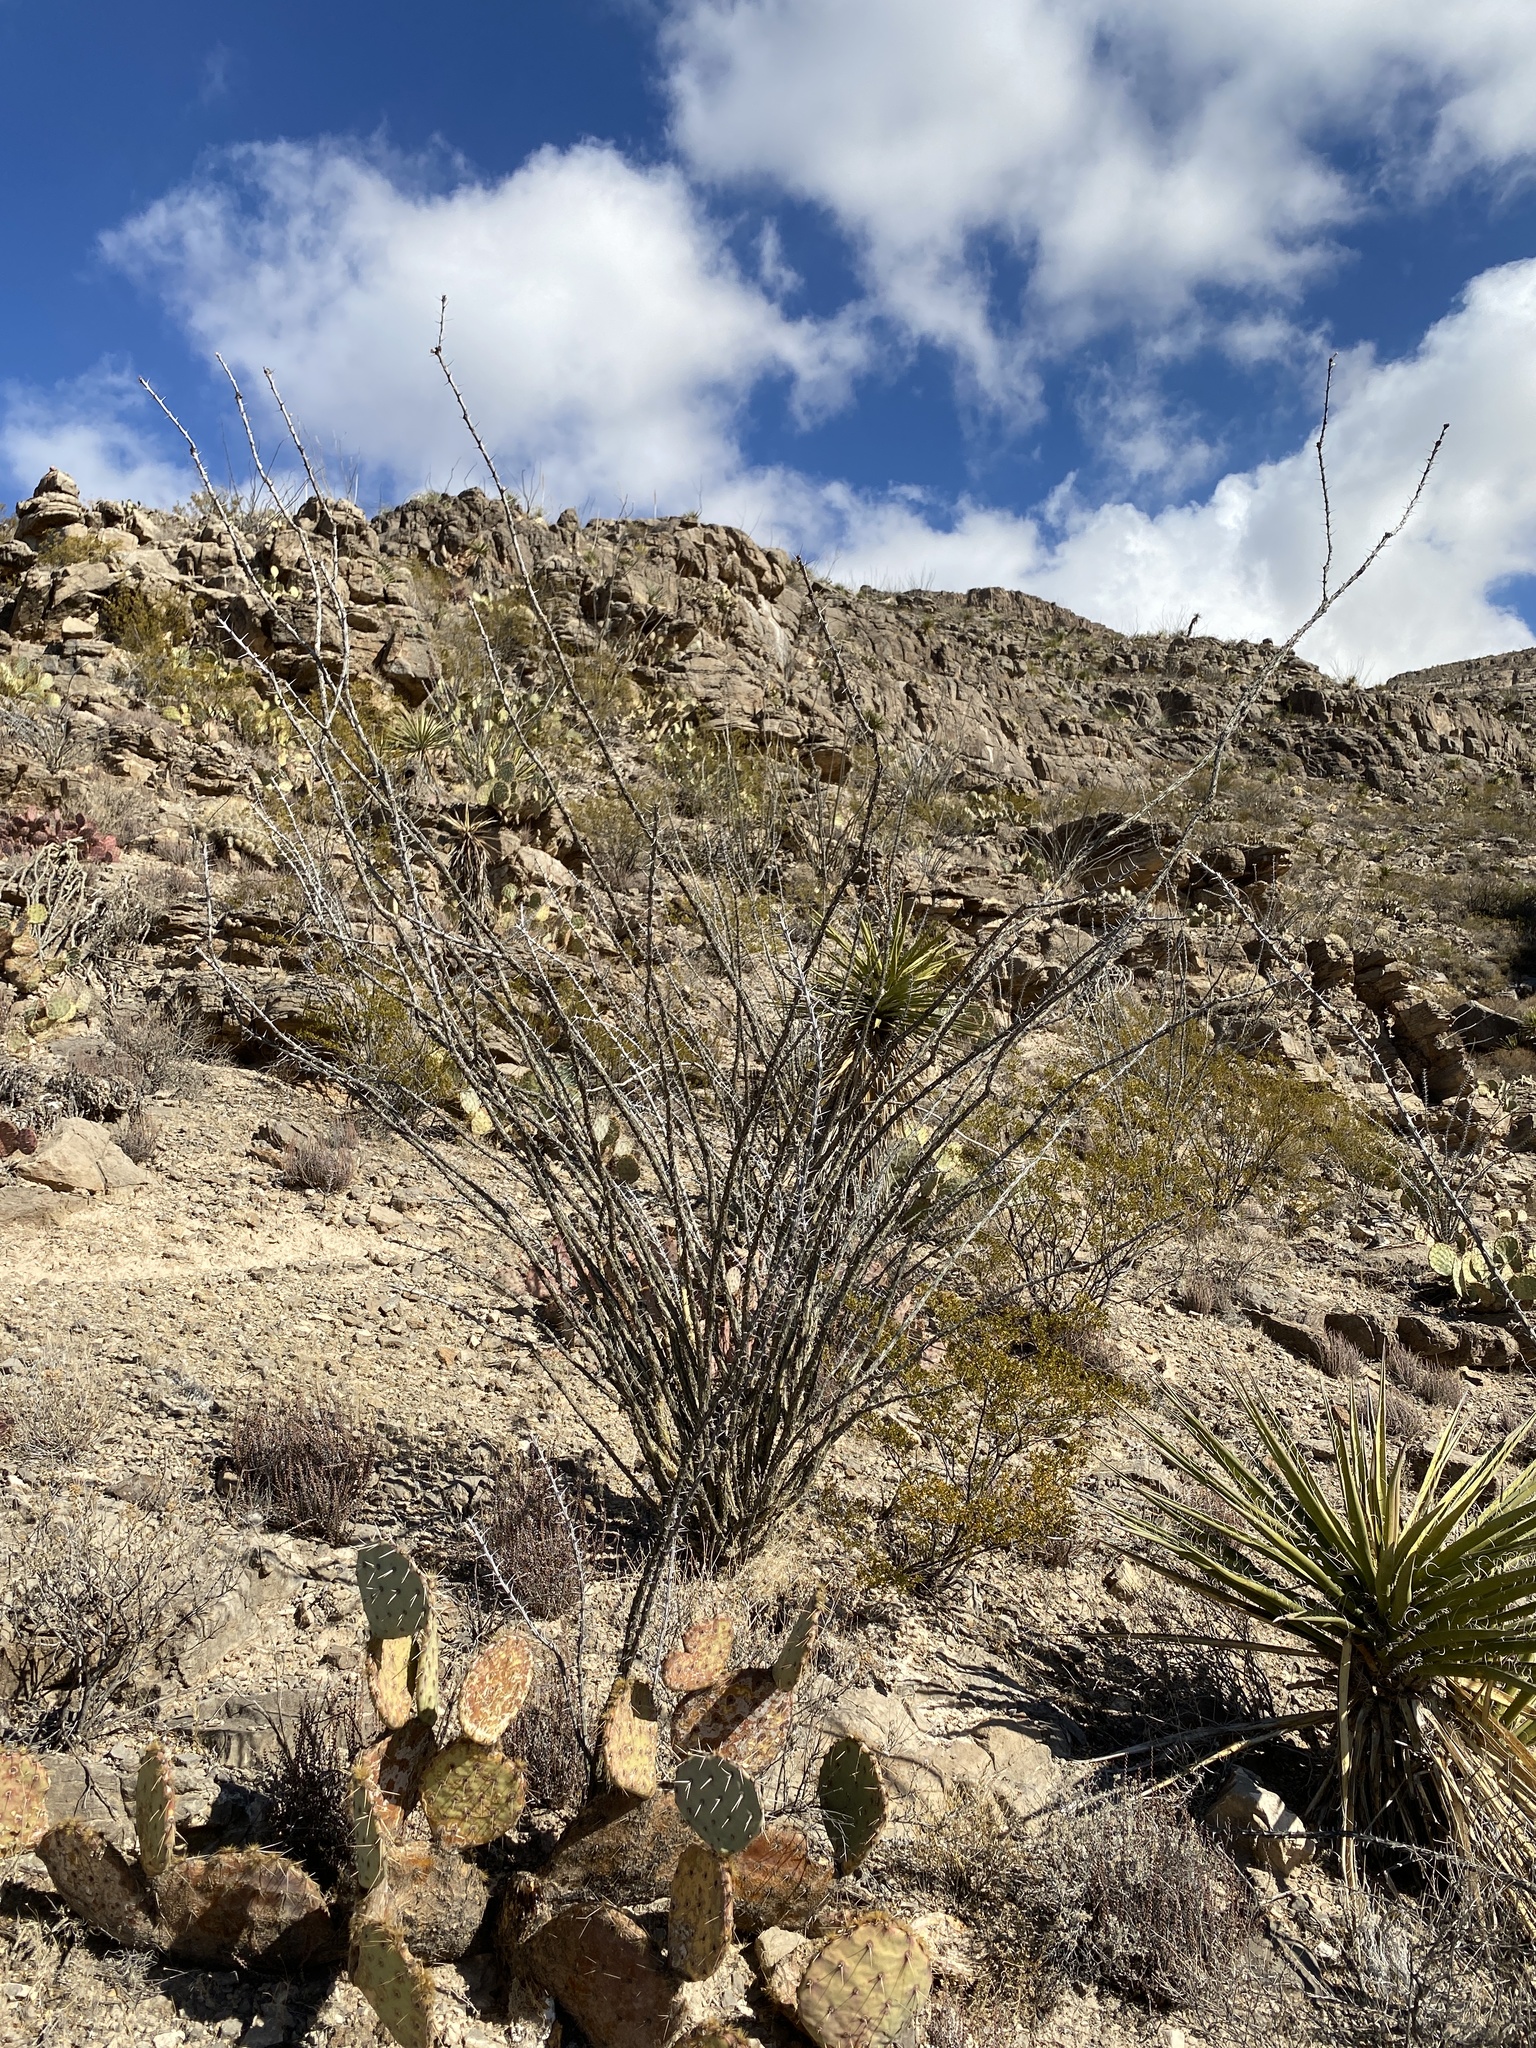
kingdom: Plantae
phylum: Tracheophyta
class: Magnoliopsida
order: Ericales
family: Fouquieriaceae
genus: Fouquieria
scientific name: Fouquieria splendens
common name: Vine-cactus
